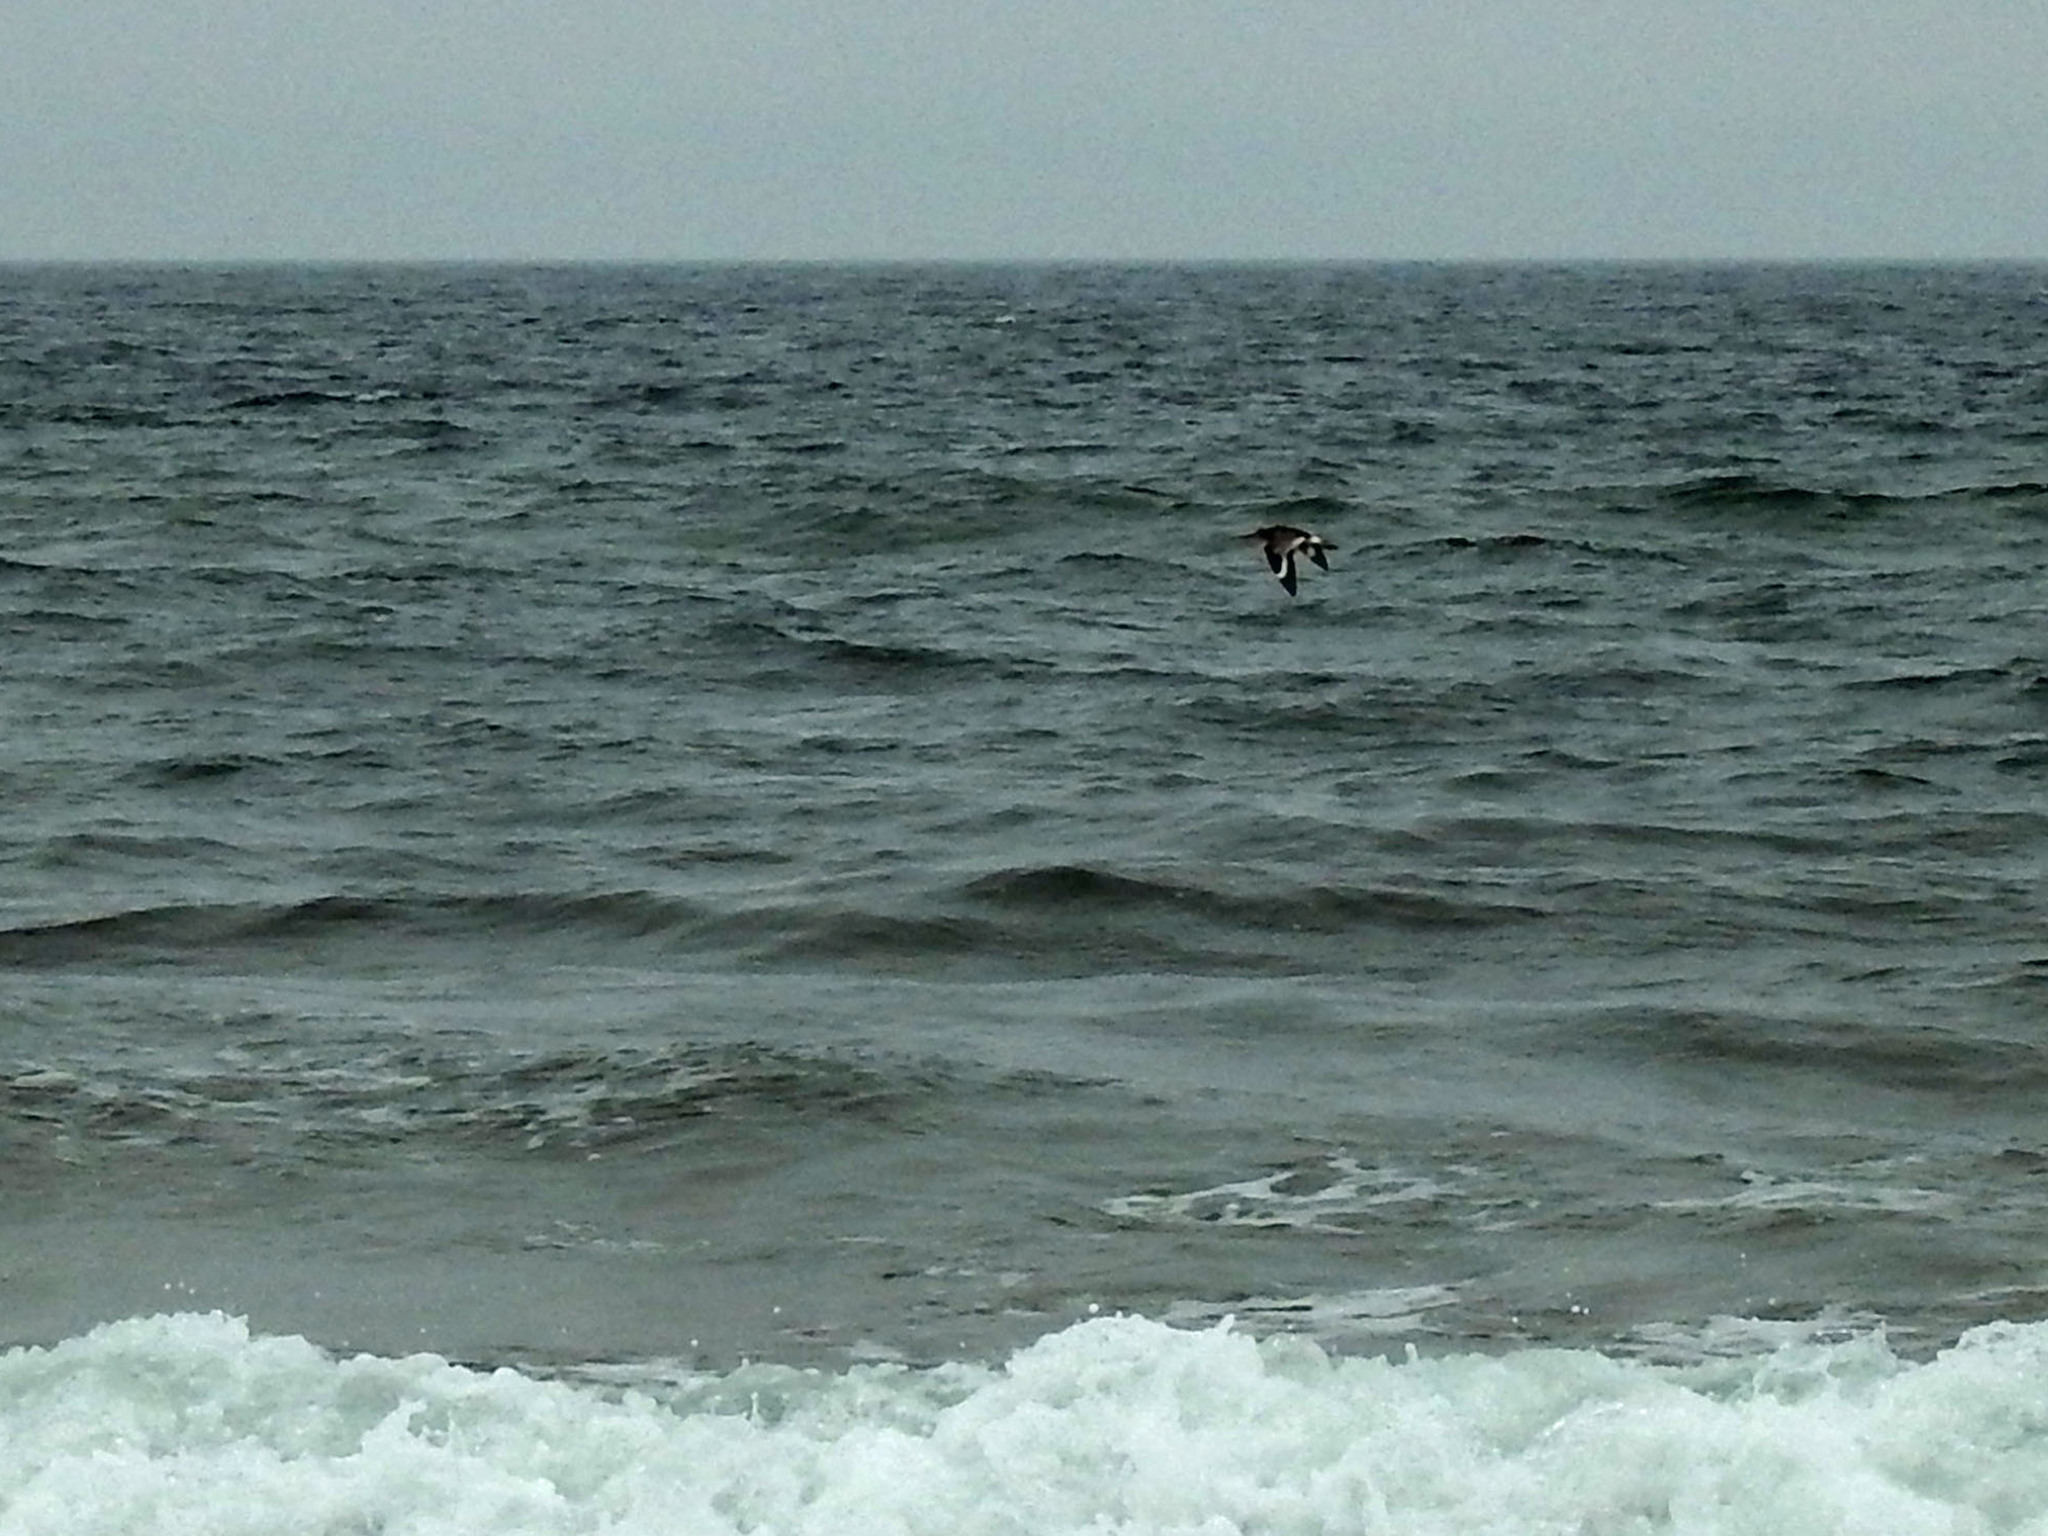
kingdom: Animalia
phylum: Chordata
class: Aves
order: Charadriiformes
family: Scolopacidae
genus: Tringa
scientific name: Tringa semipalmata
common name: Willet
